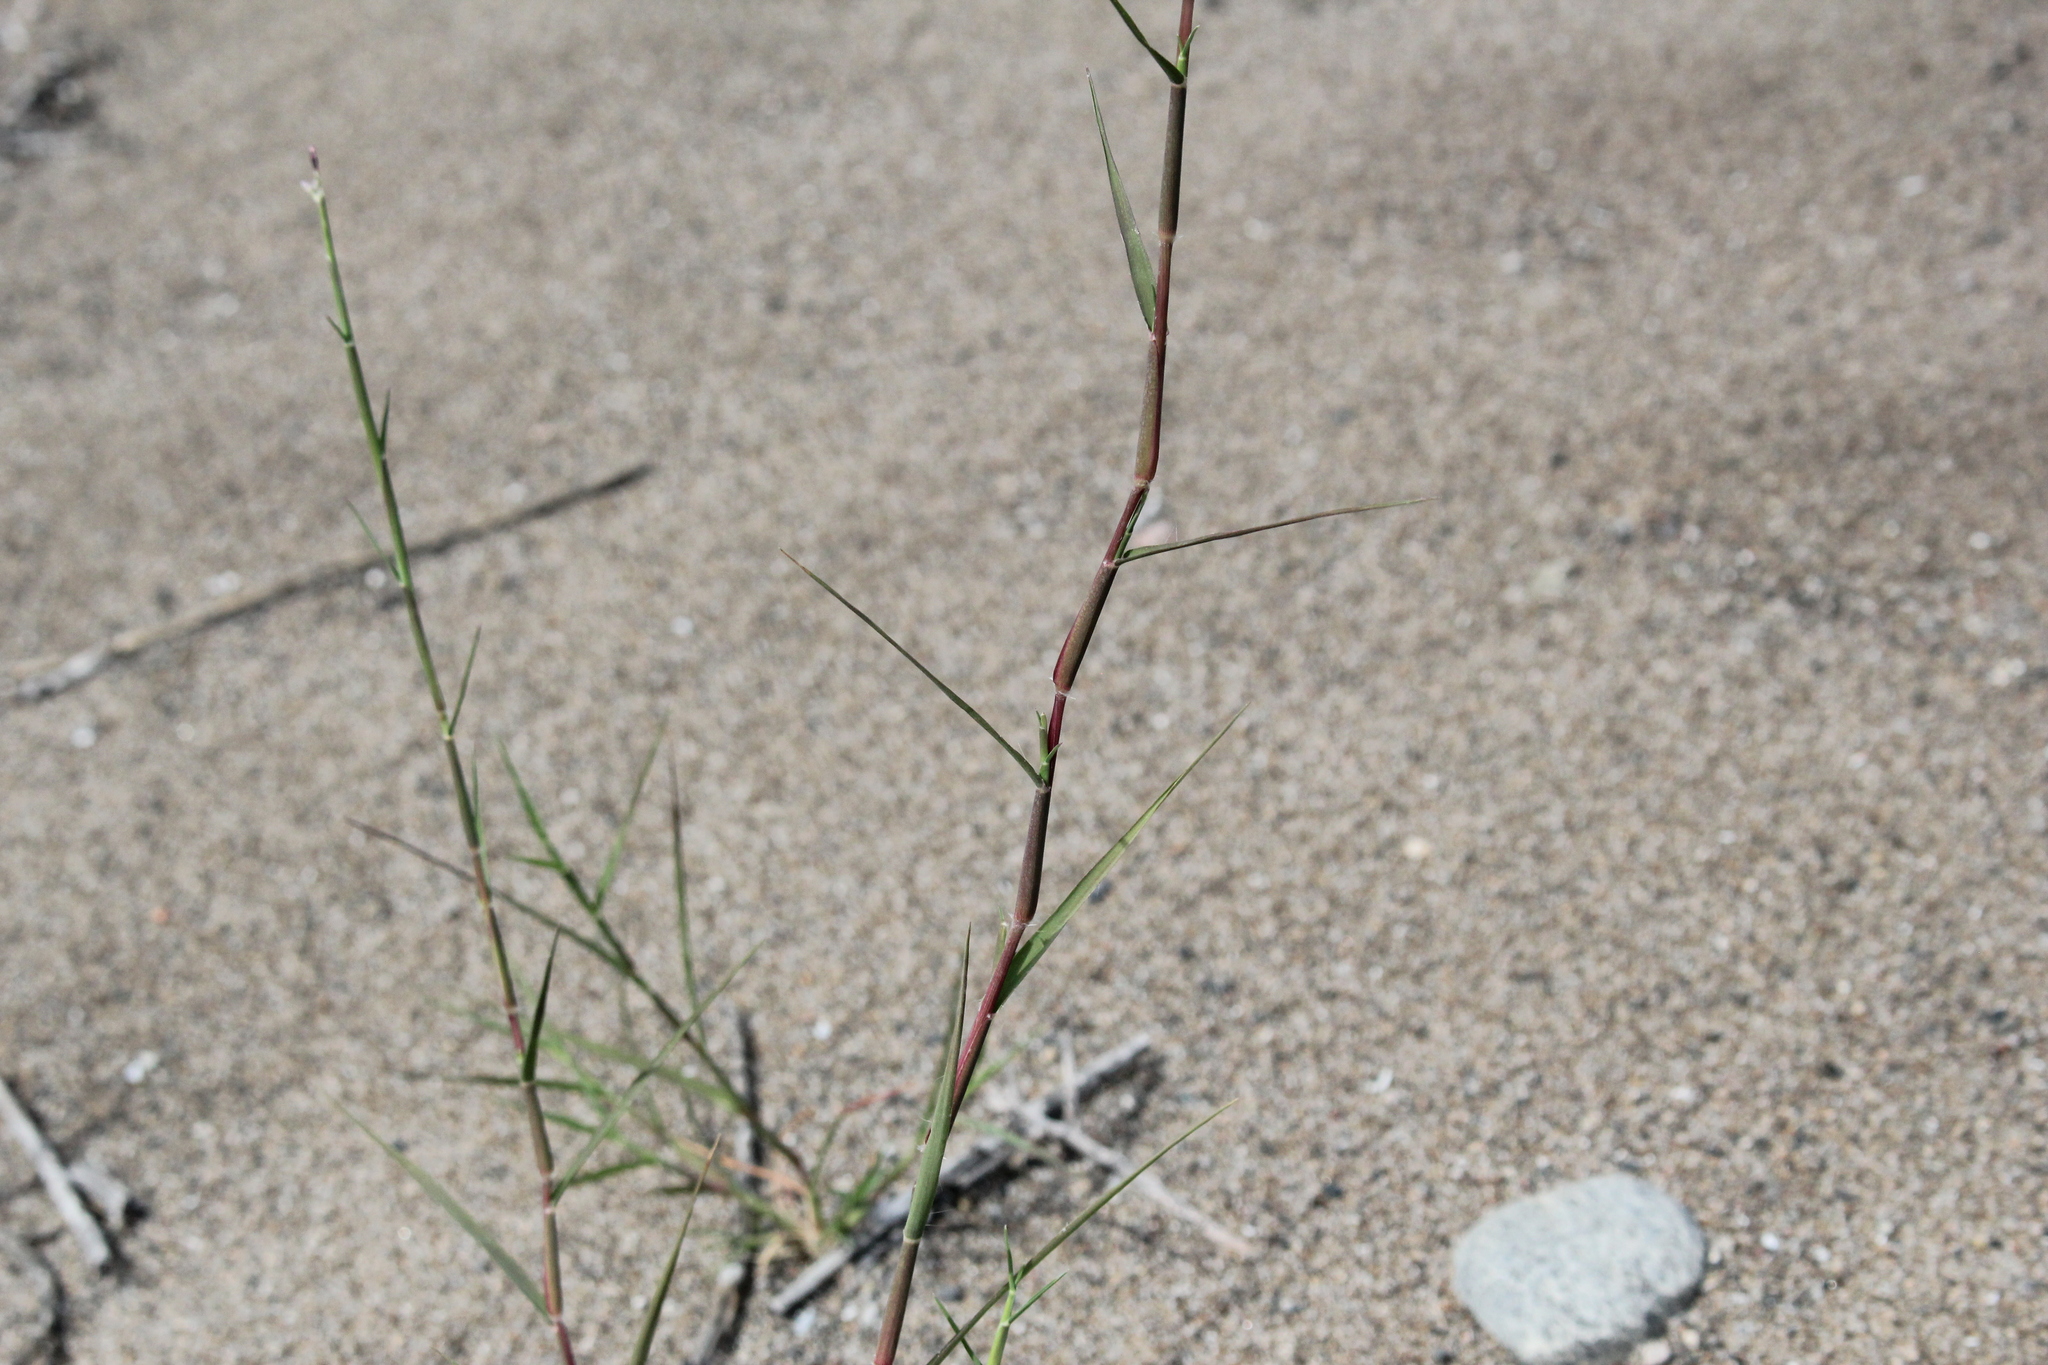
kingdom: Plantae
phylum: Tracheophyta
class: Liliopsida
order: Poales
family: Poaceae
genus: Triplasis
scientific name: Triplasis purpurea
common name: Purple sand grass
